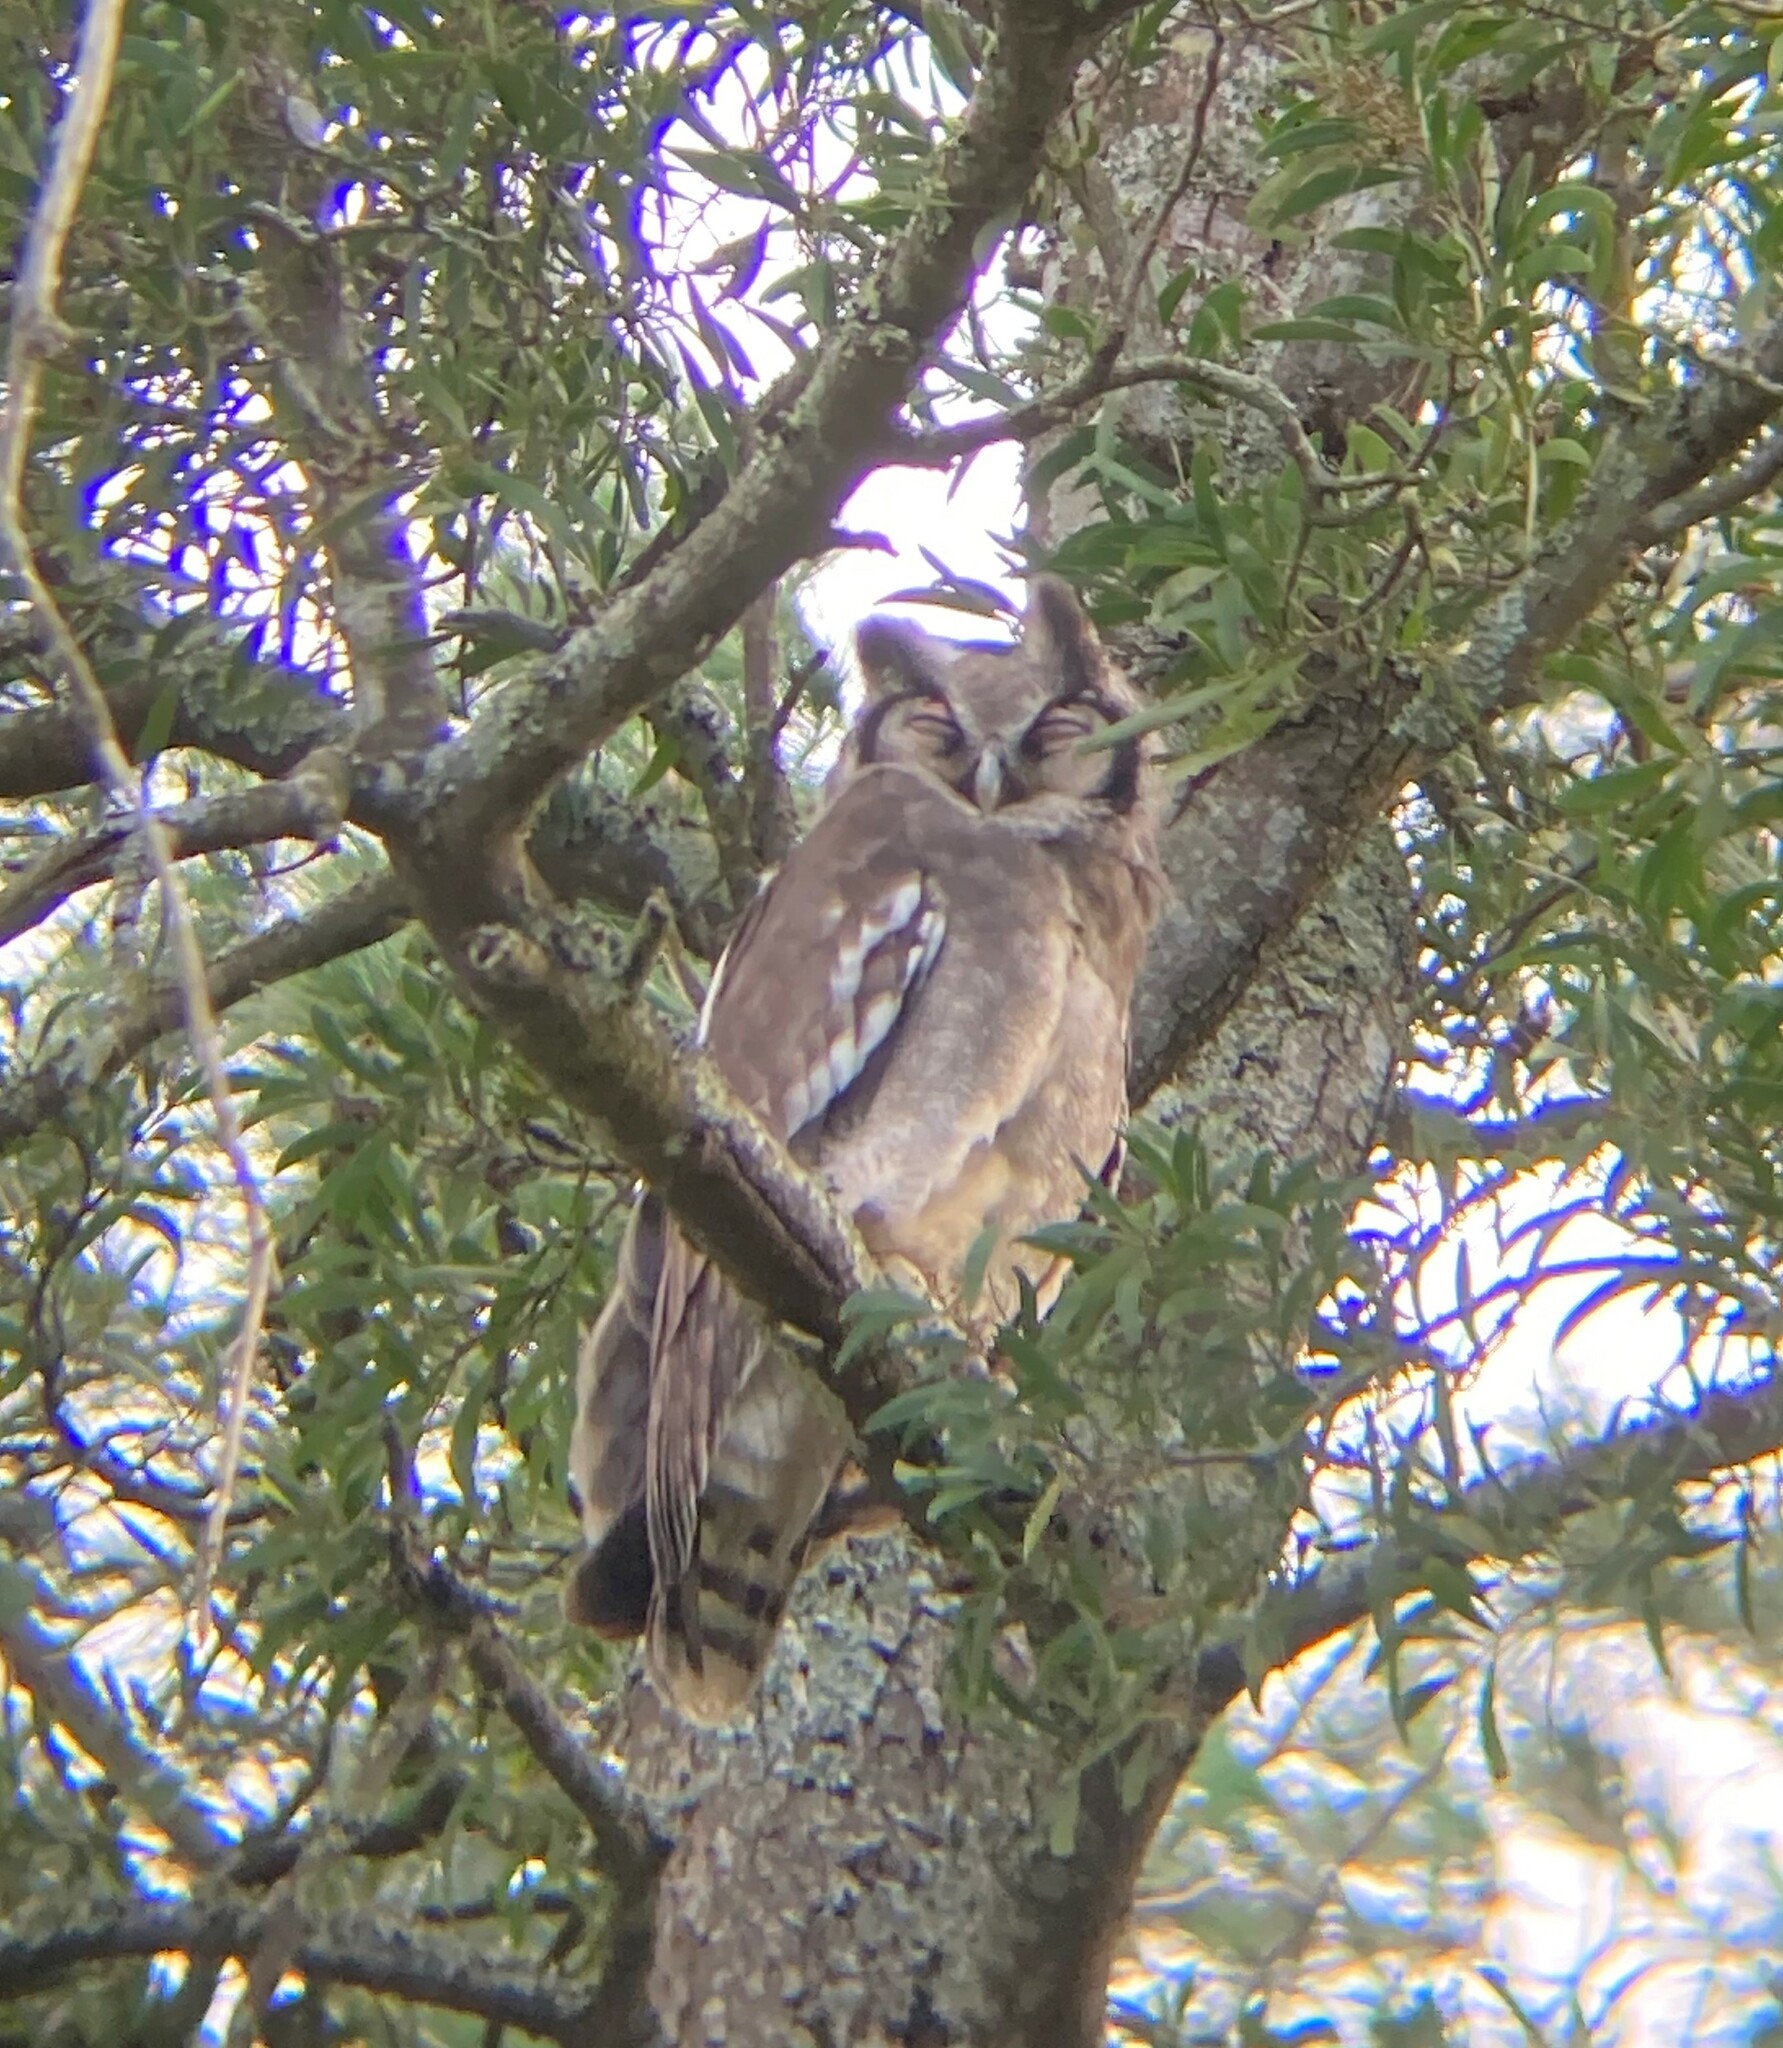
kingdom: Animalia
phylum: Chordata
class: Aves
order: Strigiformes
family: Strigidae
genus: Bubo
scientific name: Bubo lacteus
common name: Verreaux's eagle-owl
